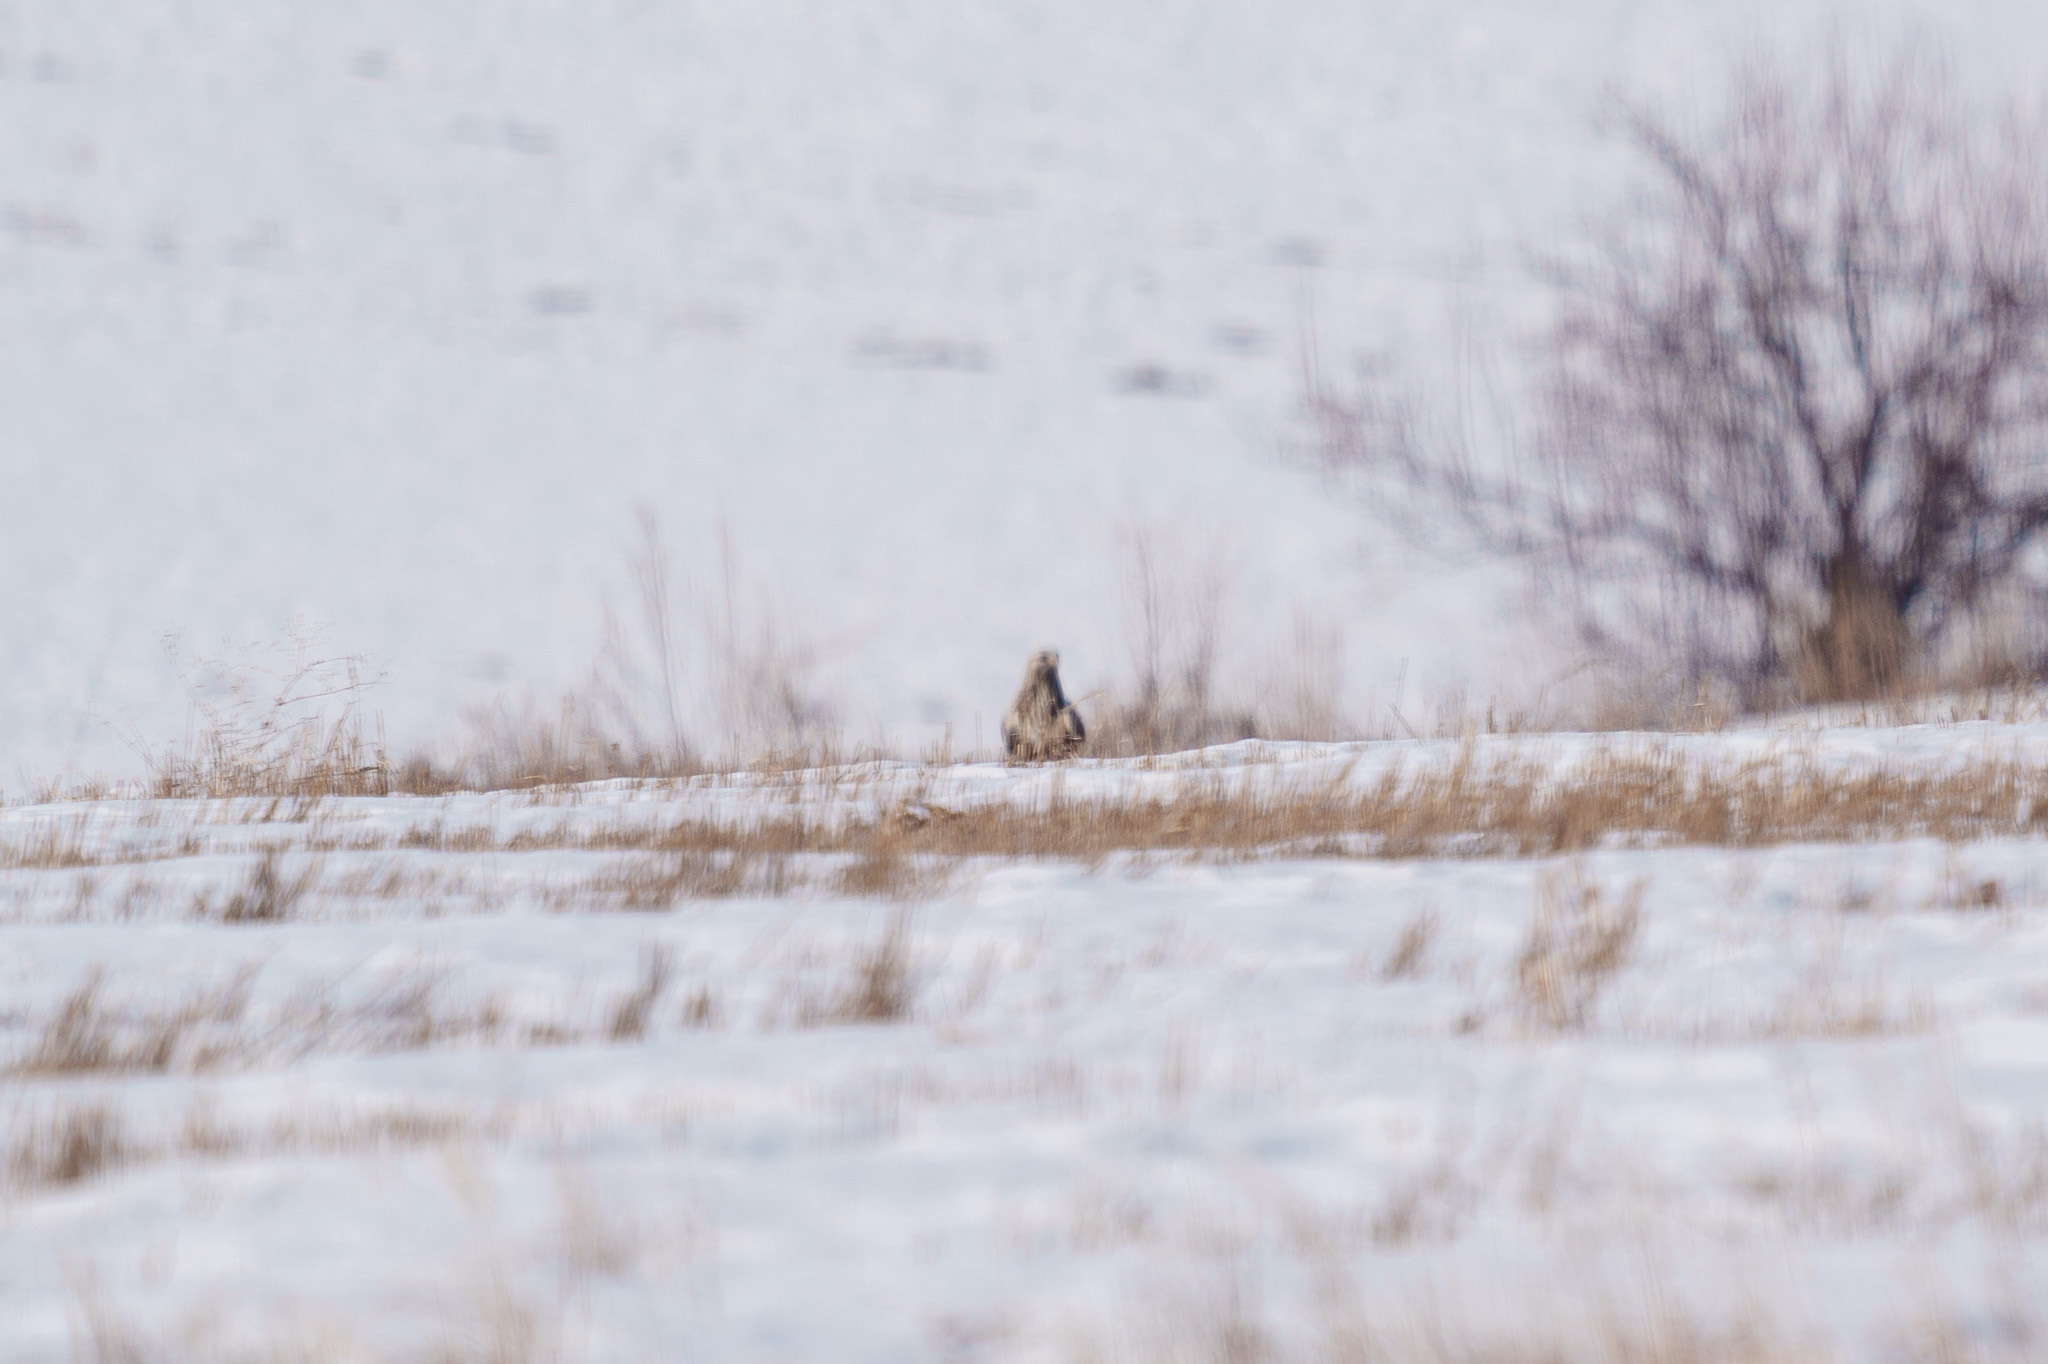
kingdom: Animalia
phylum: Chordata
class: Aves
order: Accipitriformes
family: Accipitridae
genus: Buteo
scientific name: Buteo lagopus
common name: Rough-legged buzzard
